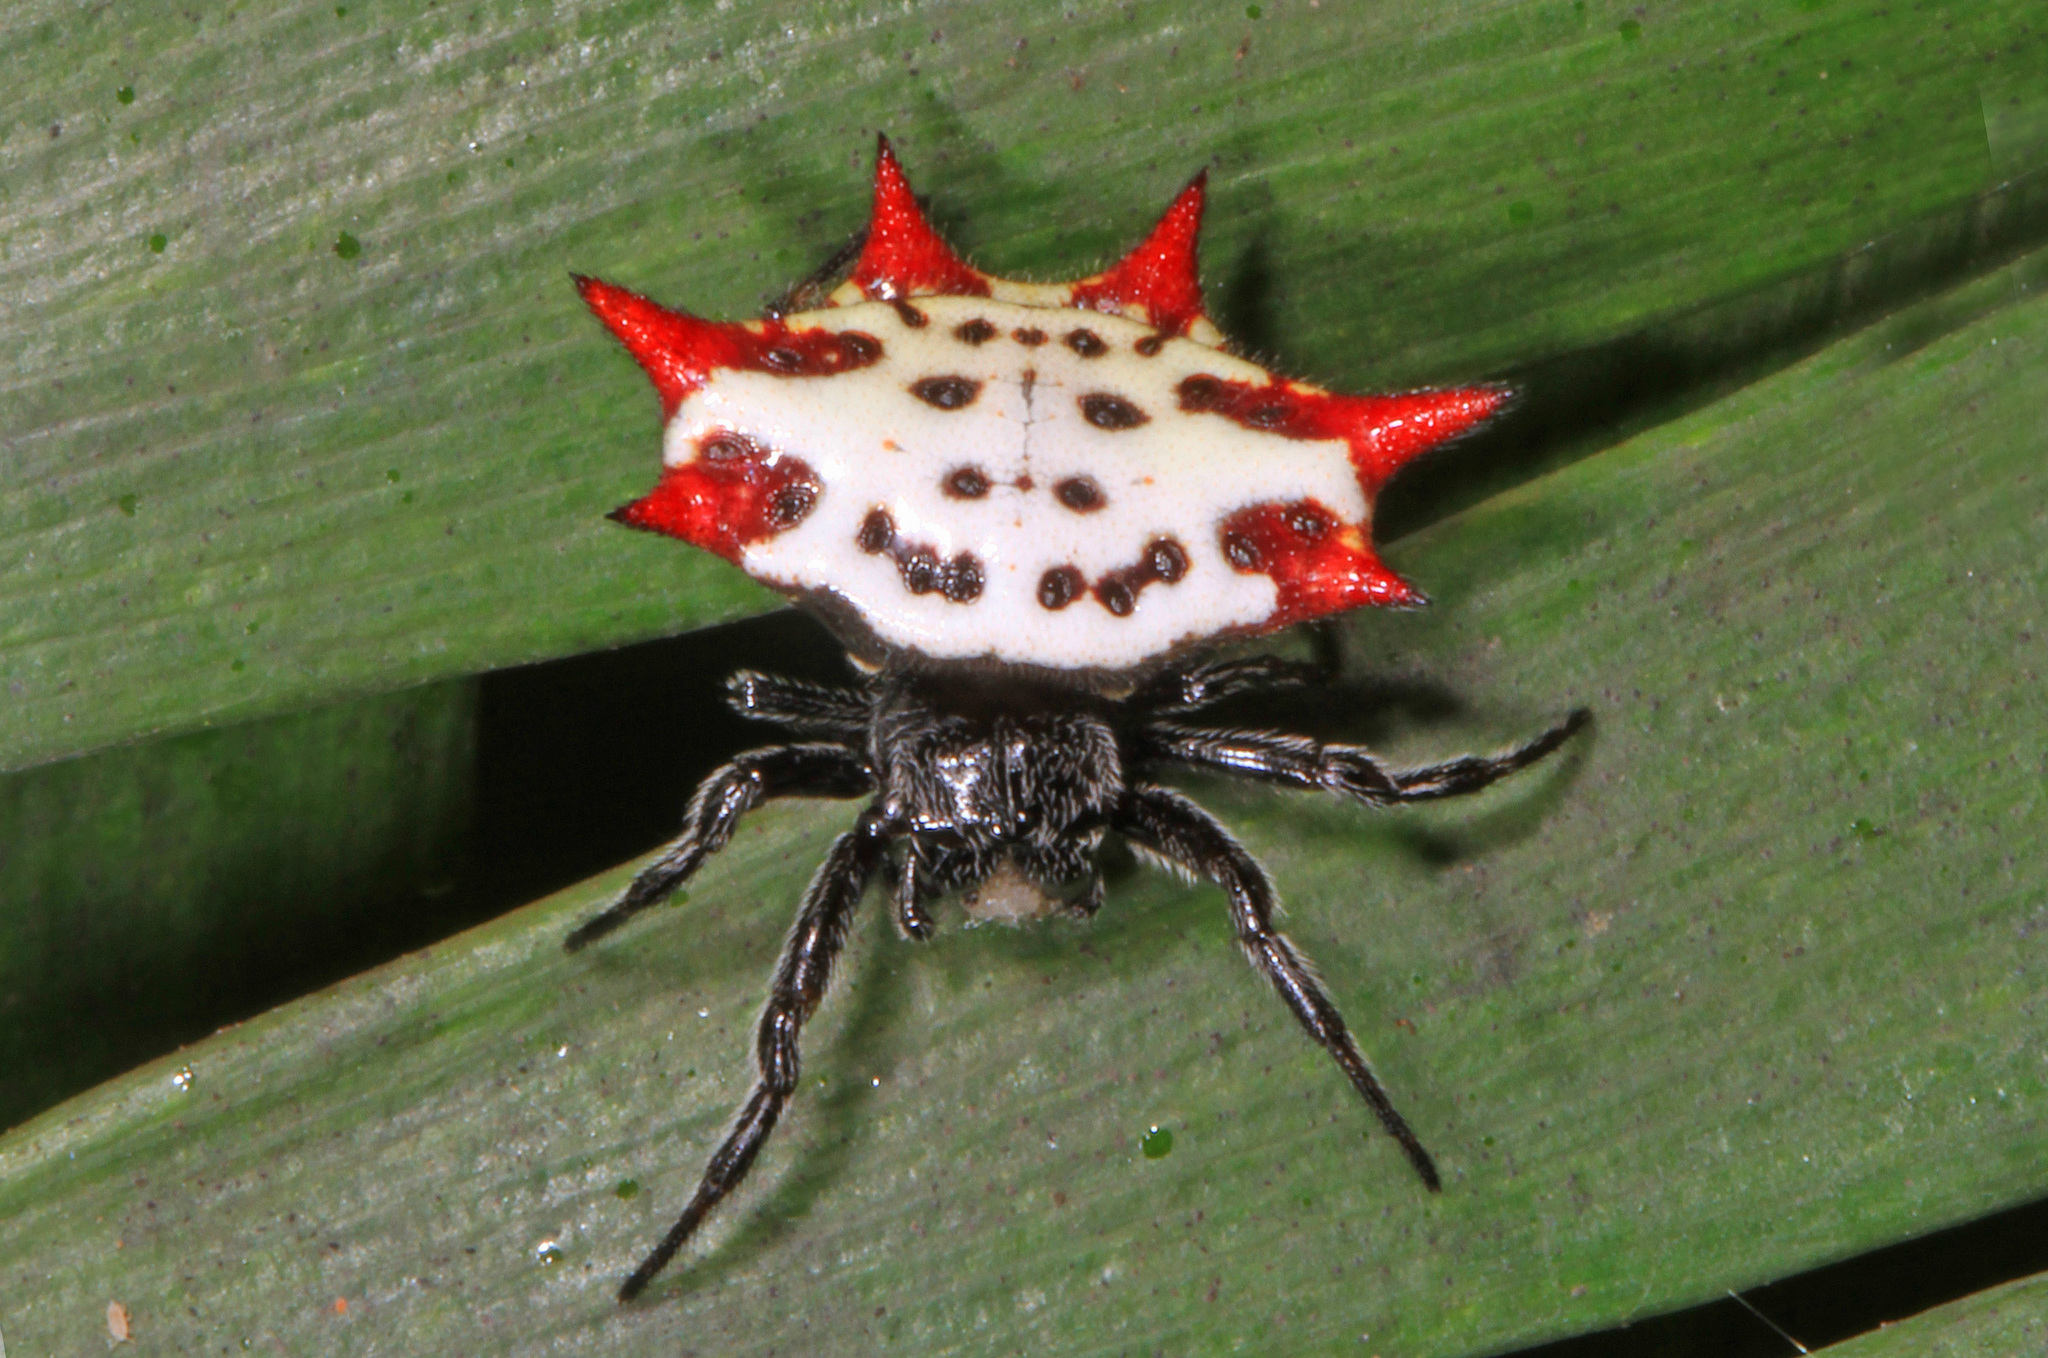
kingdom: Animalia
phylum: Arthropoda
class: Arachnida
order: Araneae
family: Araneidae
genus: Gasteracantha
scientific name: Gasteracantha cancriformis
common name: Orb weavers
